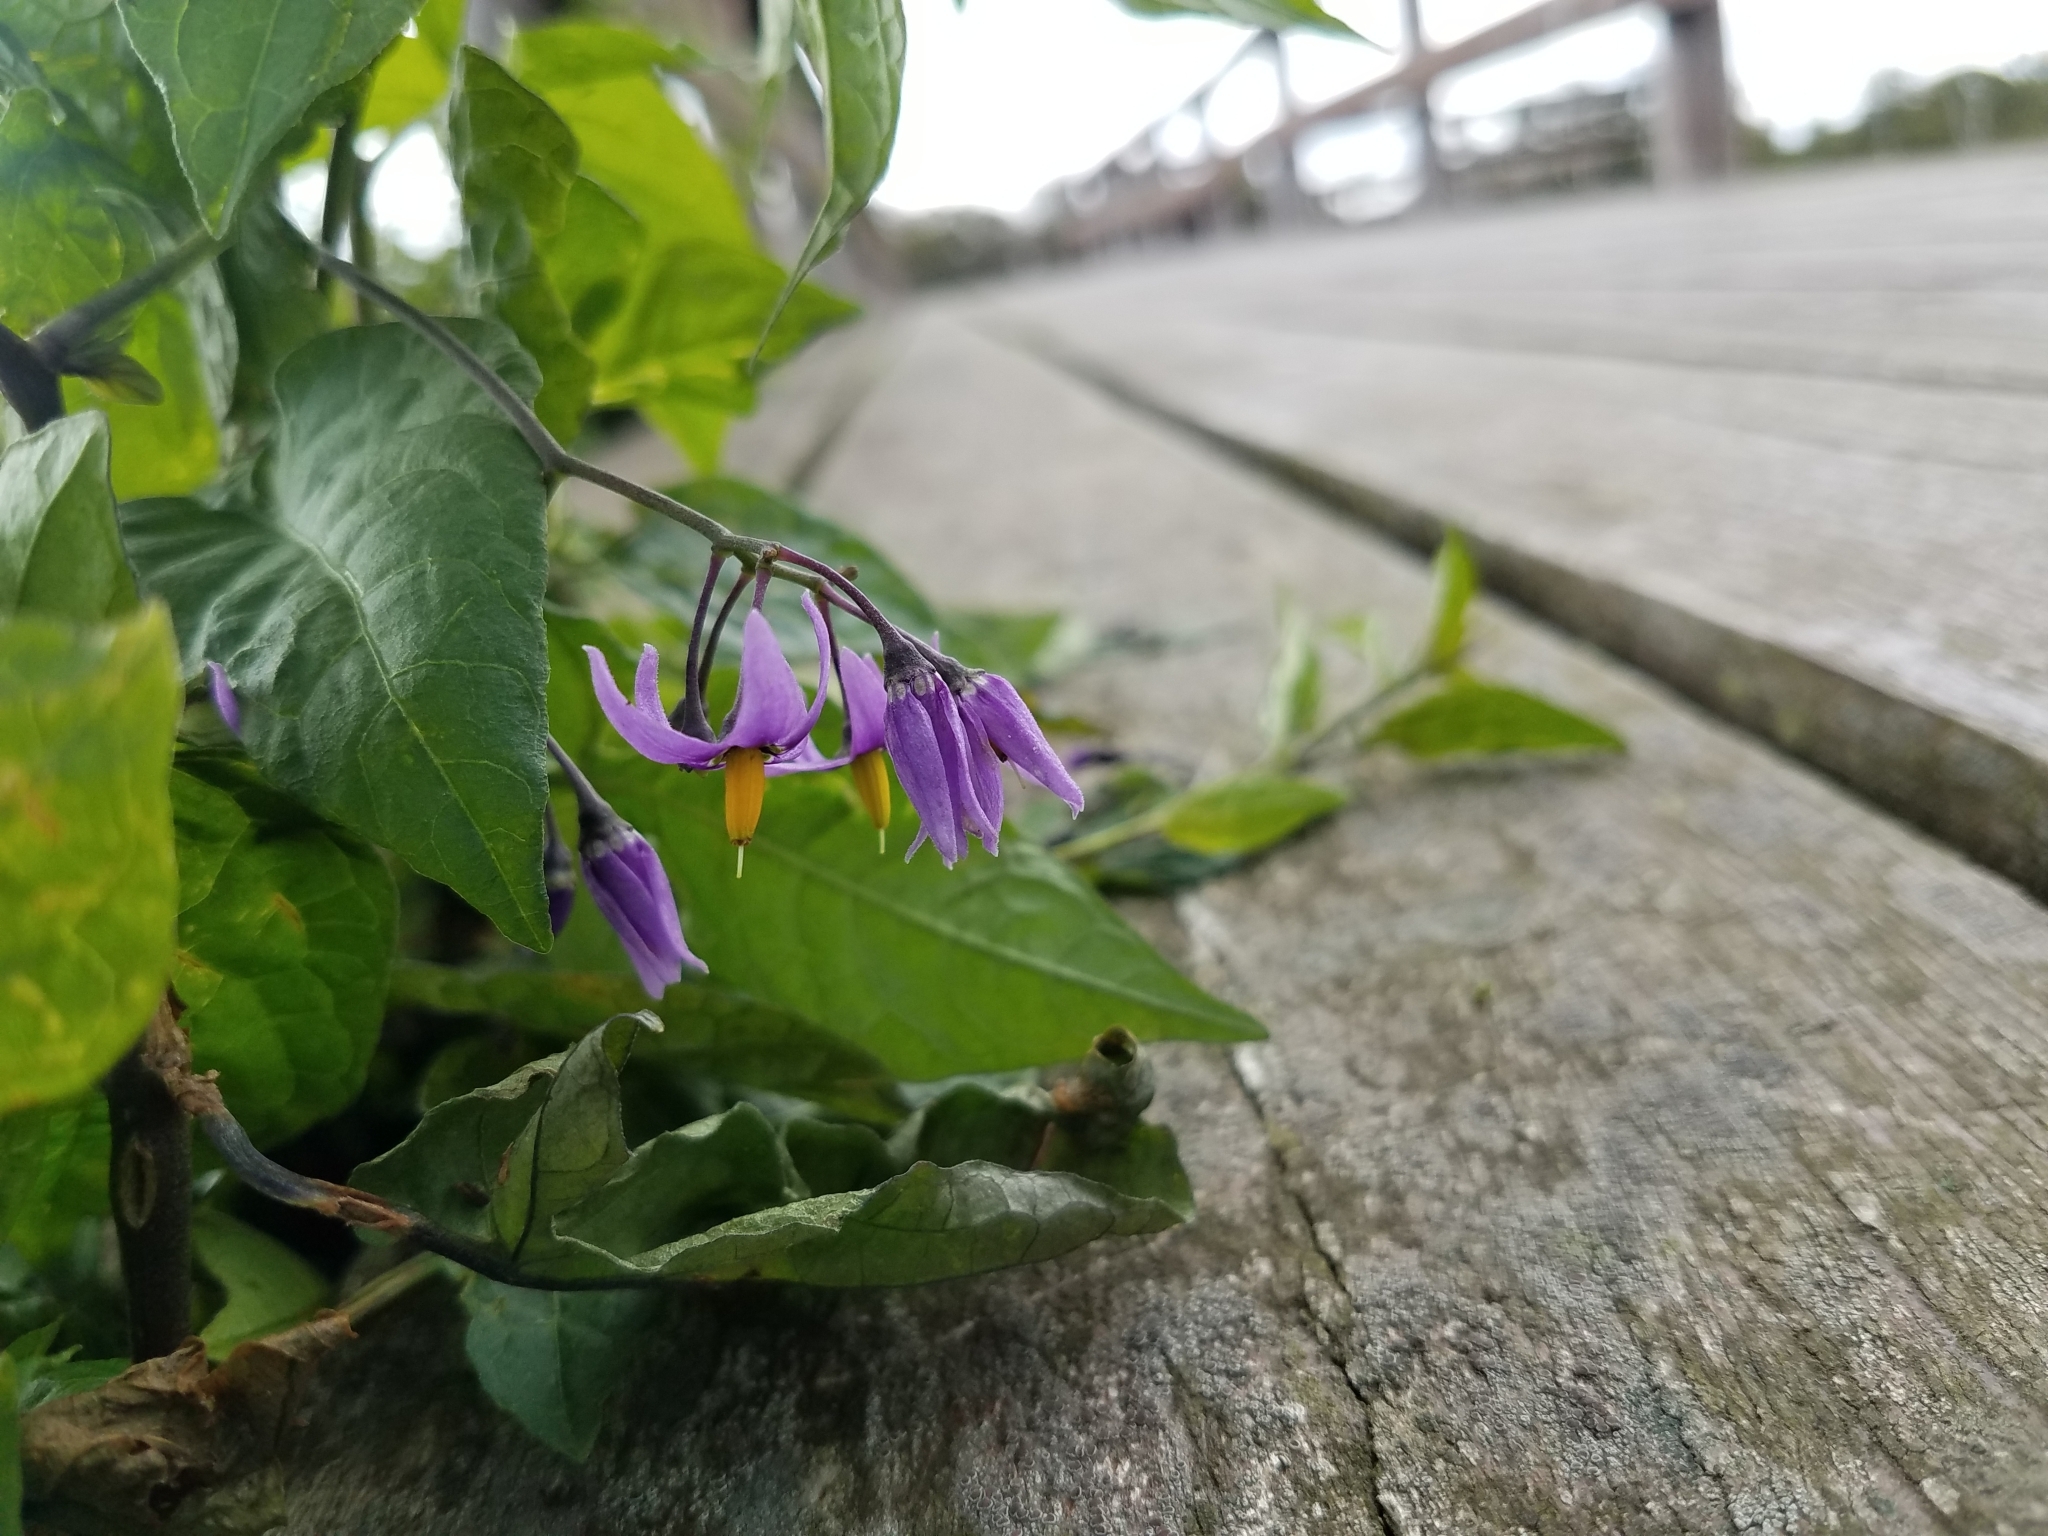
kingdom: Plantae
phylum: Tracheophyta
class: Magnoliopsida
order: Solanales
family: Solanaceae
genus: Solanum
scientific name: Solanum dulcamara
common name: Climbing nightshade
